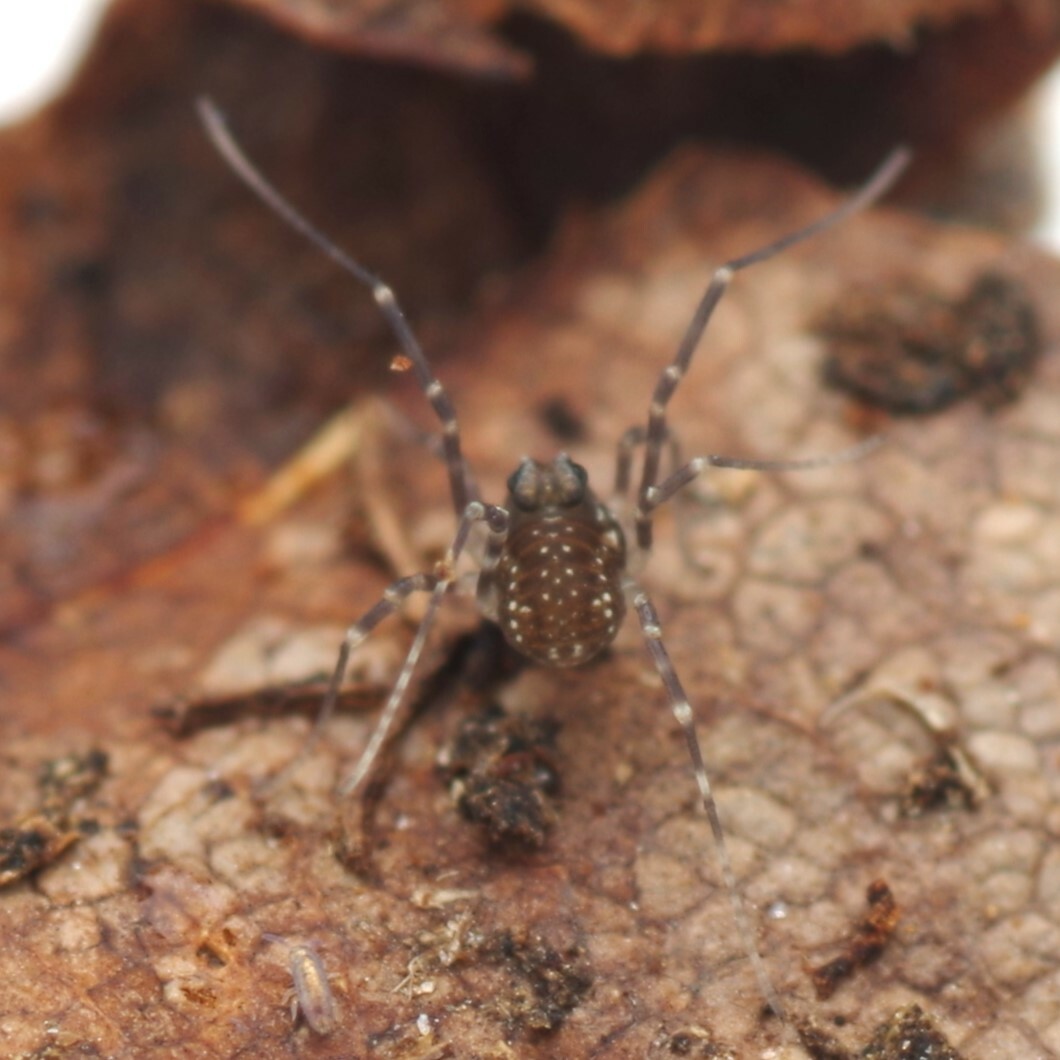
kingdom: Animalia
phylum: Arthropoda
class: Arachnida
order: Opiliones
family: Phalangiidae
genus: Rilaena
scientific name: Rilaena triangularis
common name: Spring harvestman
